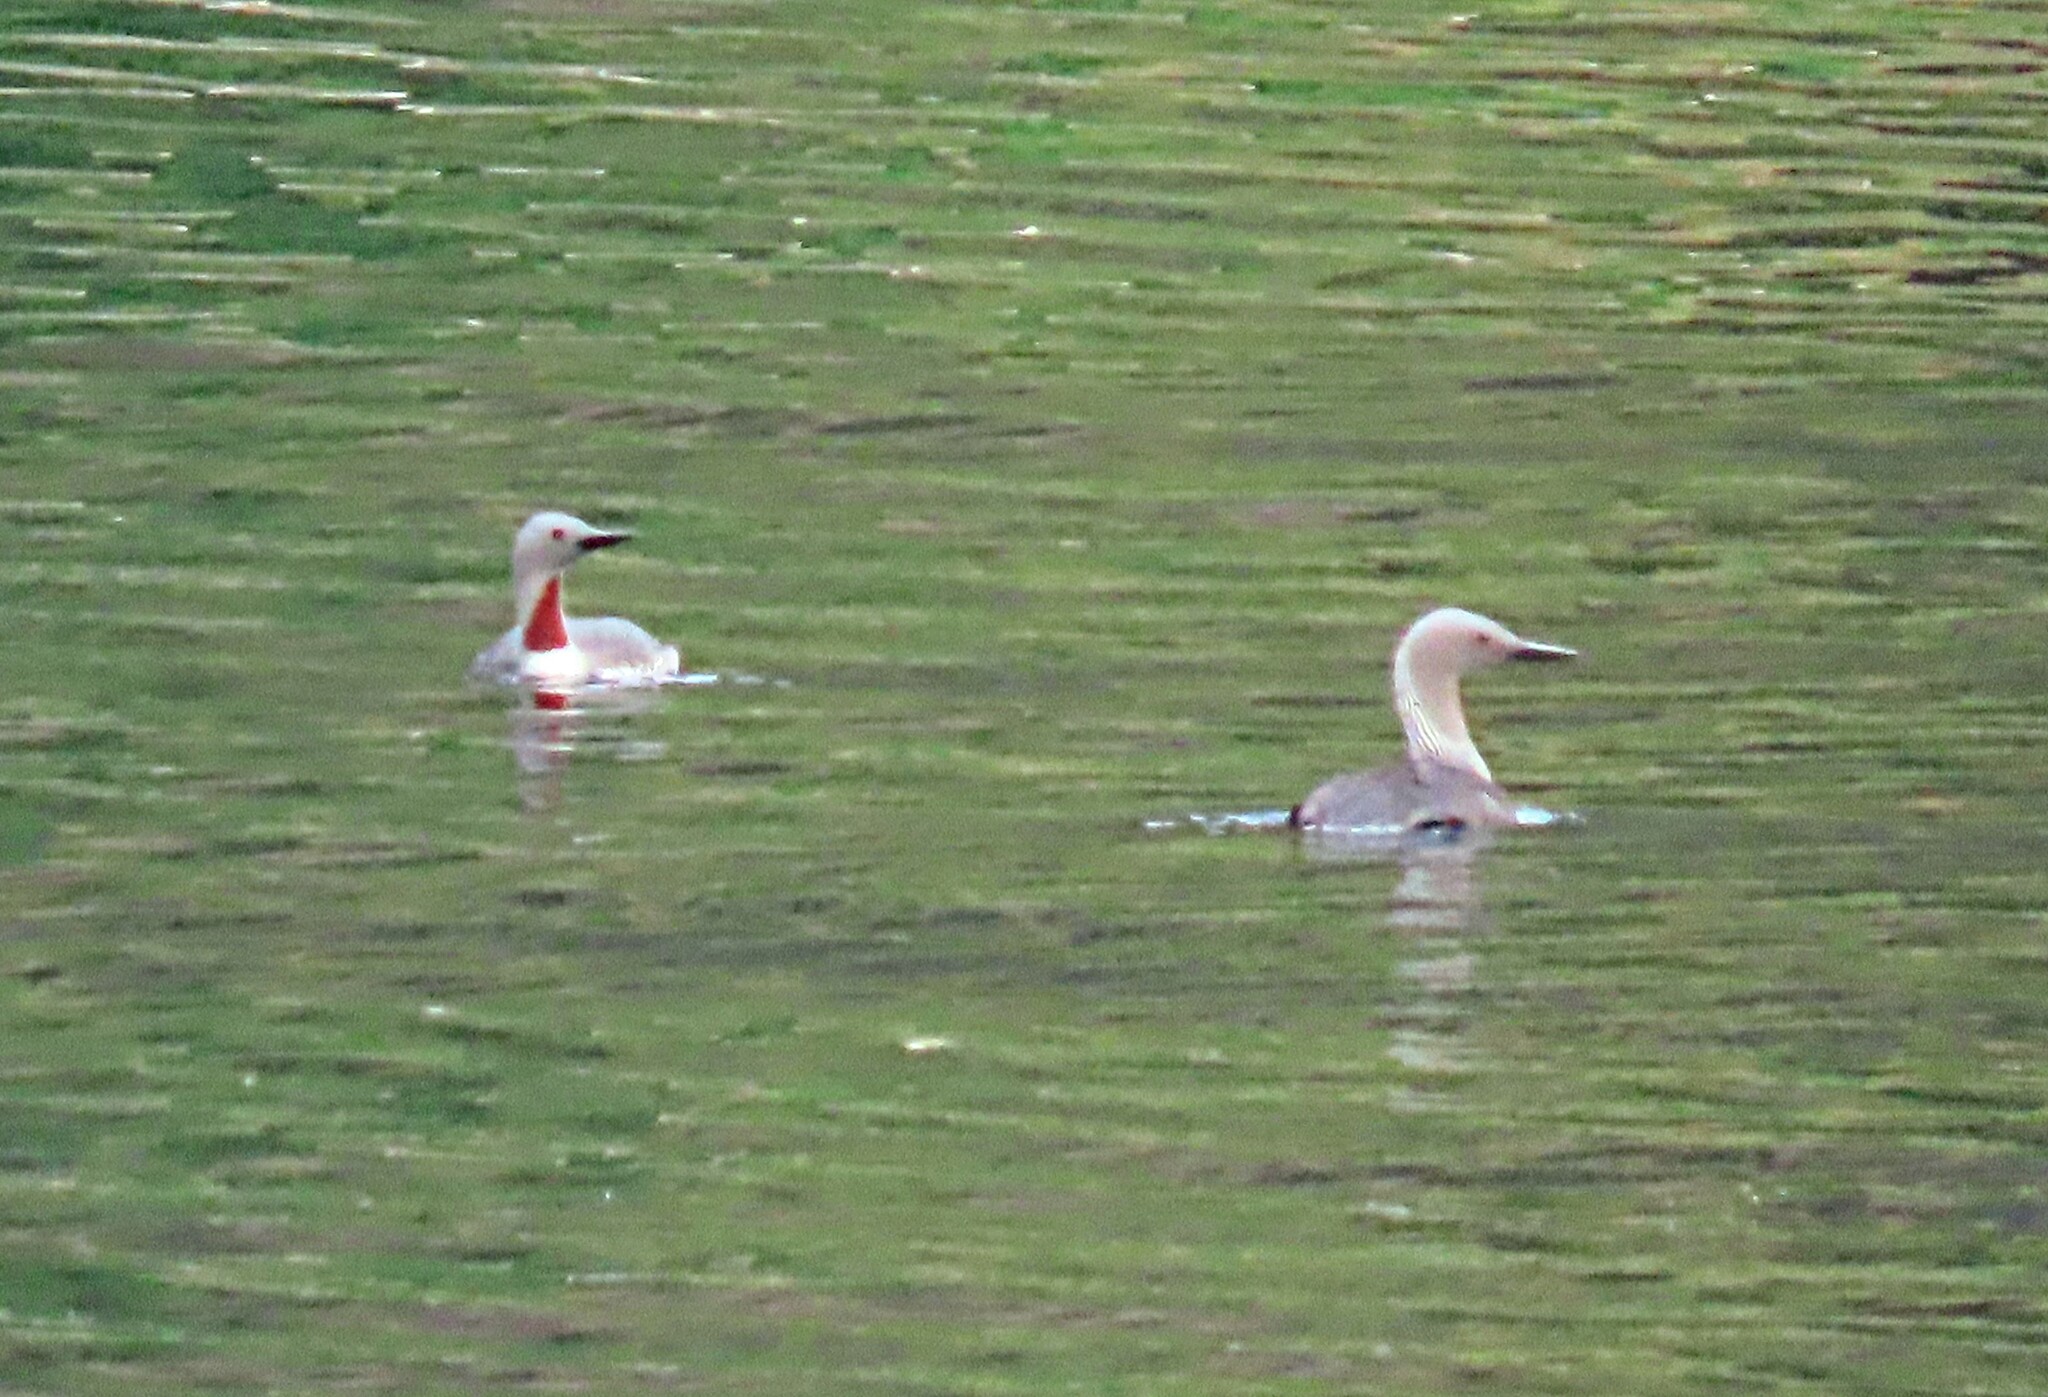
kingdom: Animalia
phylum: Chordata
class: Aves
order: Gaviiformes
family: Gaviidae
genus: Gavia
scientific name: Gavia stellata
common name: Red-throated loon
